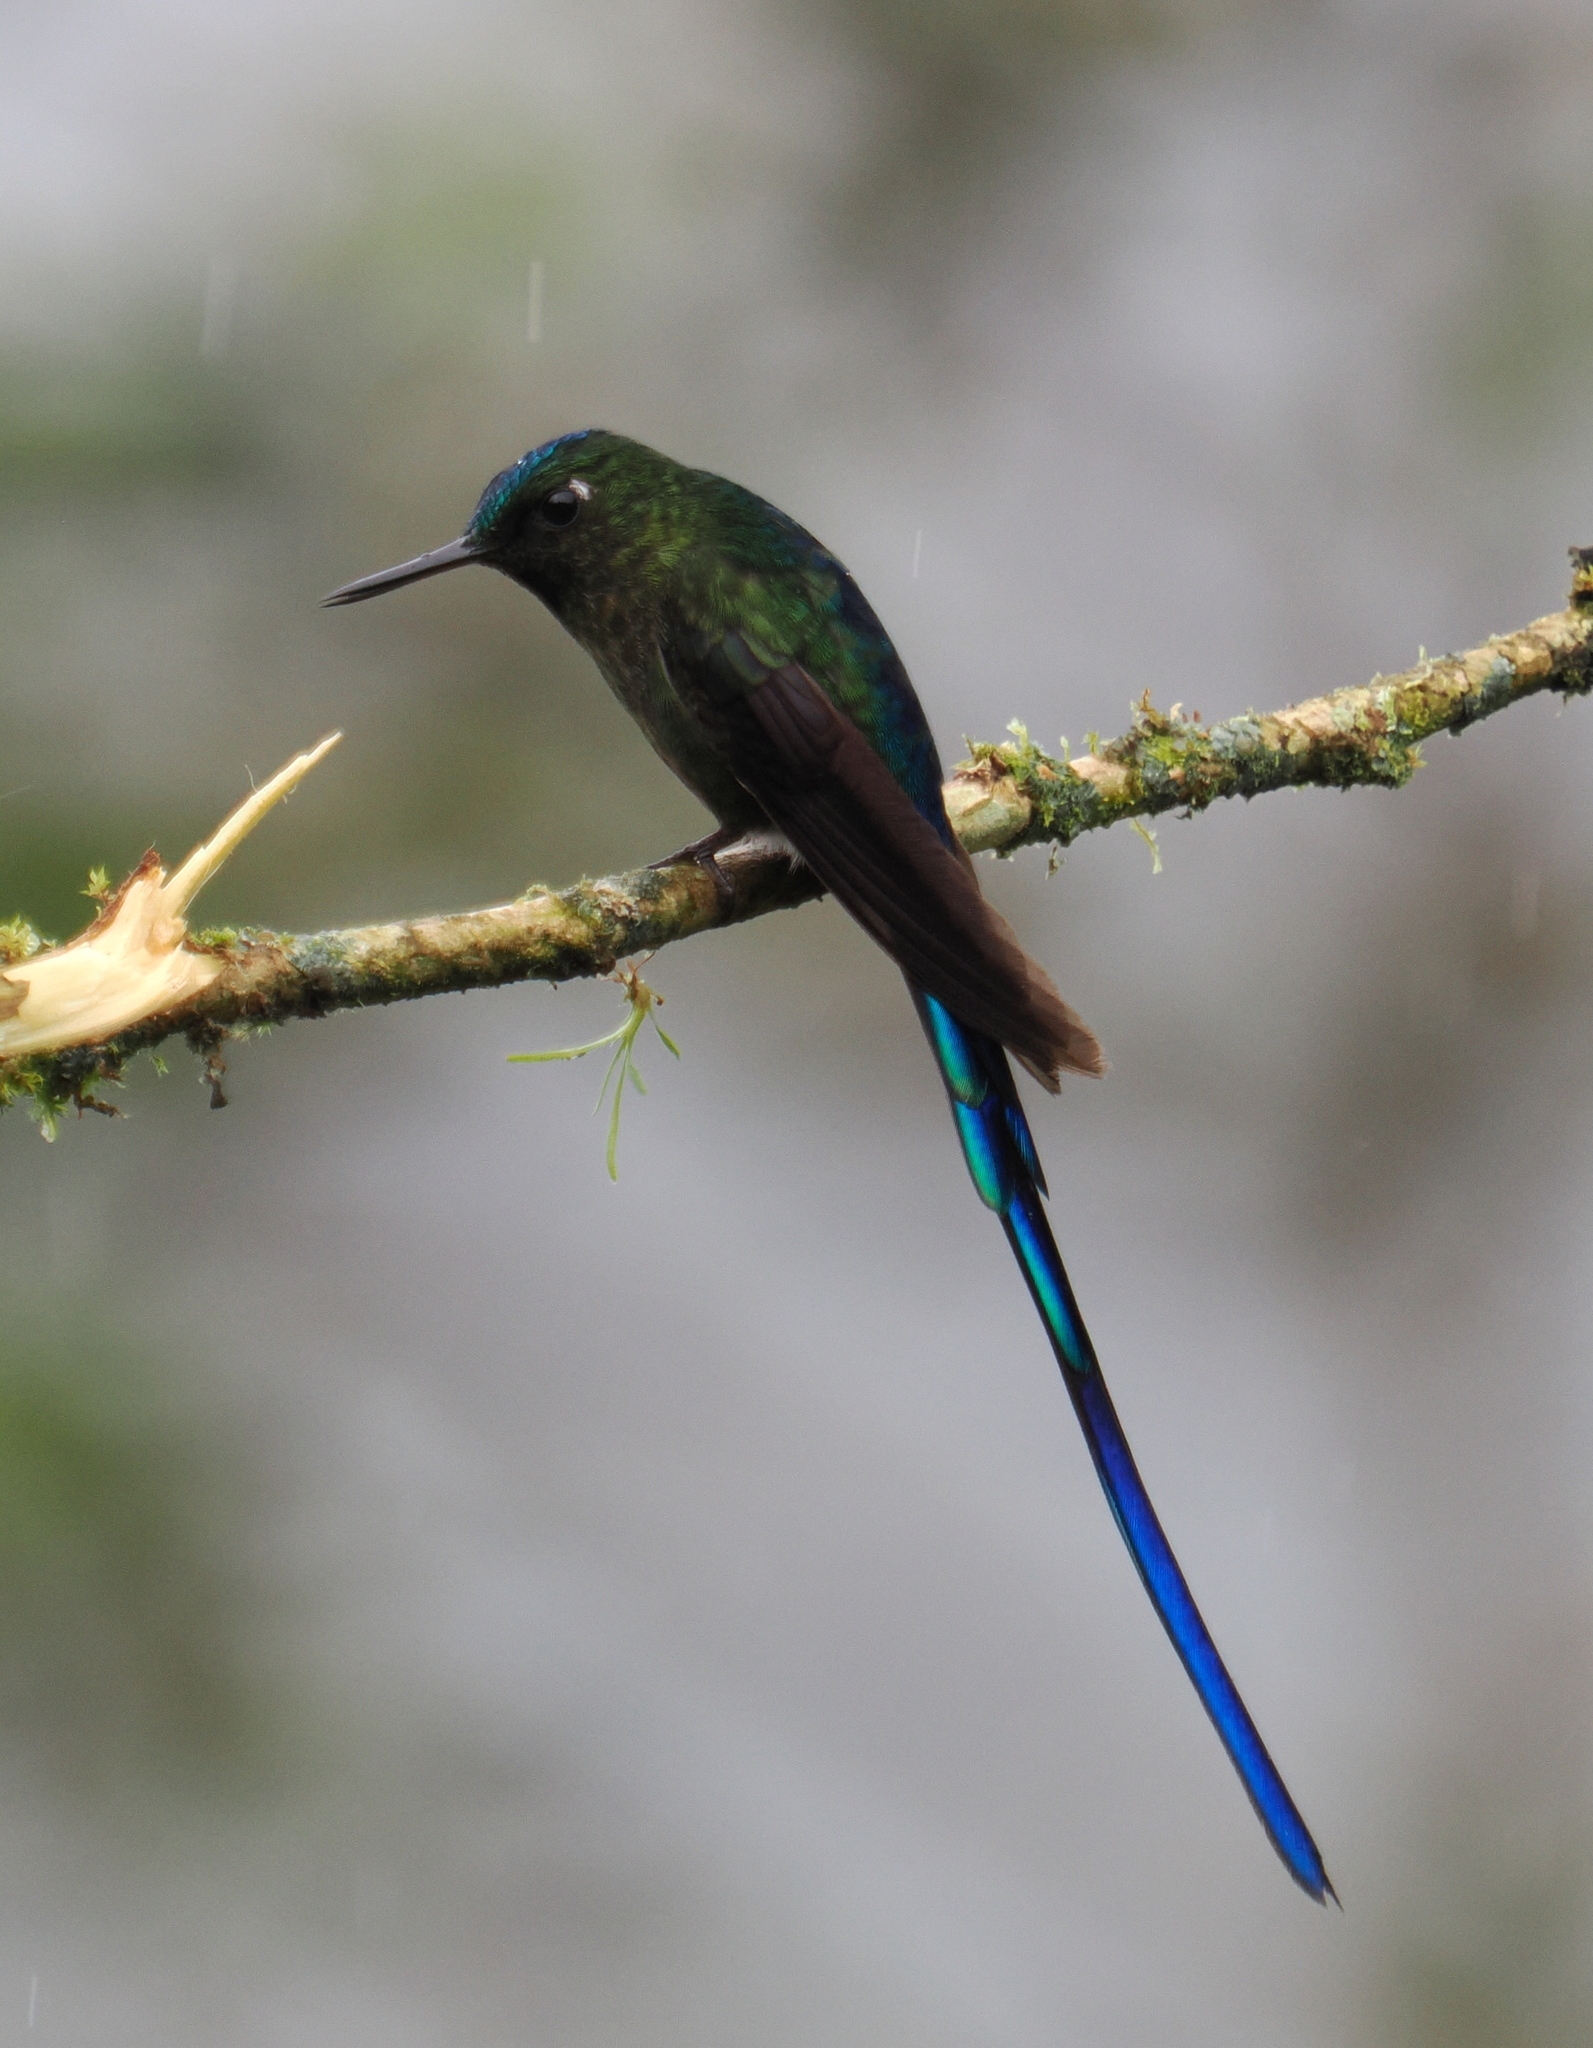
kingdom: Animalia
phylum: Chordata
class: Aves
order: Apodiformes
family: Trochilidae
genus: Aglaiocercus
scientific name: Aglaiocercus coelestis
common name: Violet-tailed sylph
